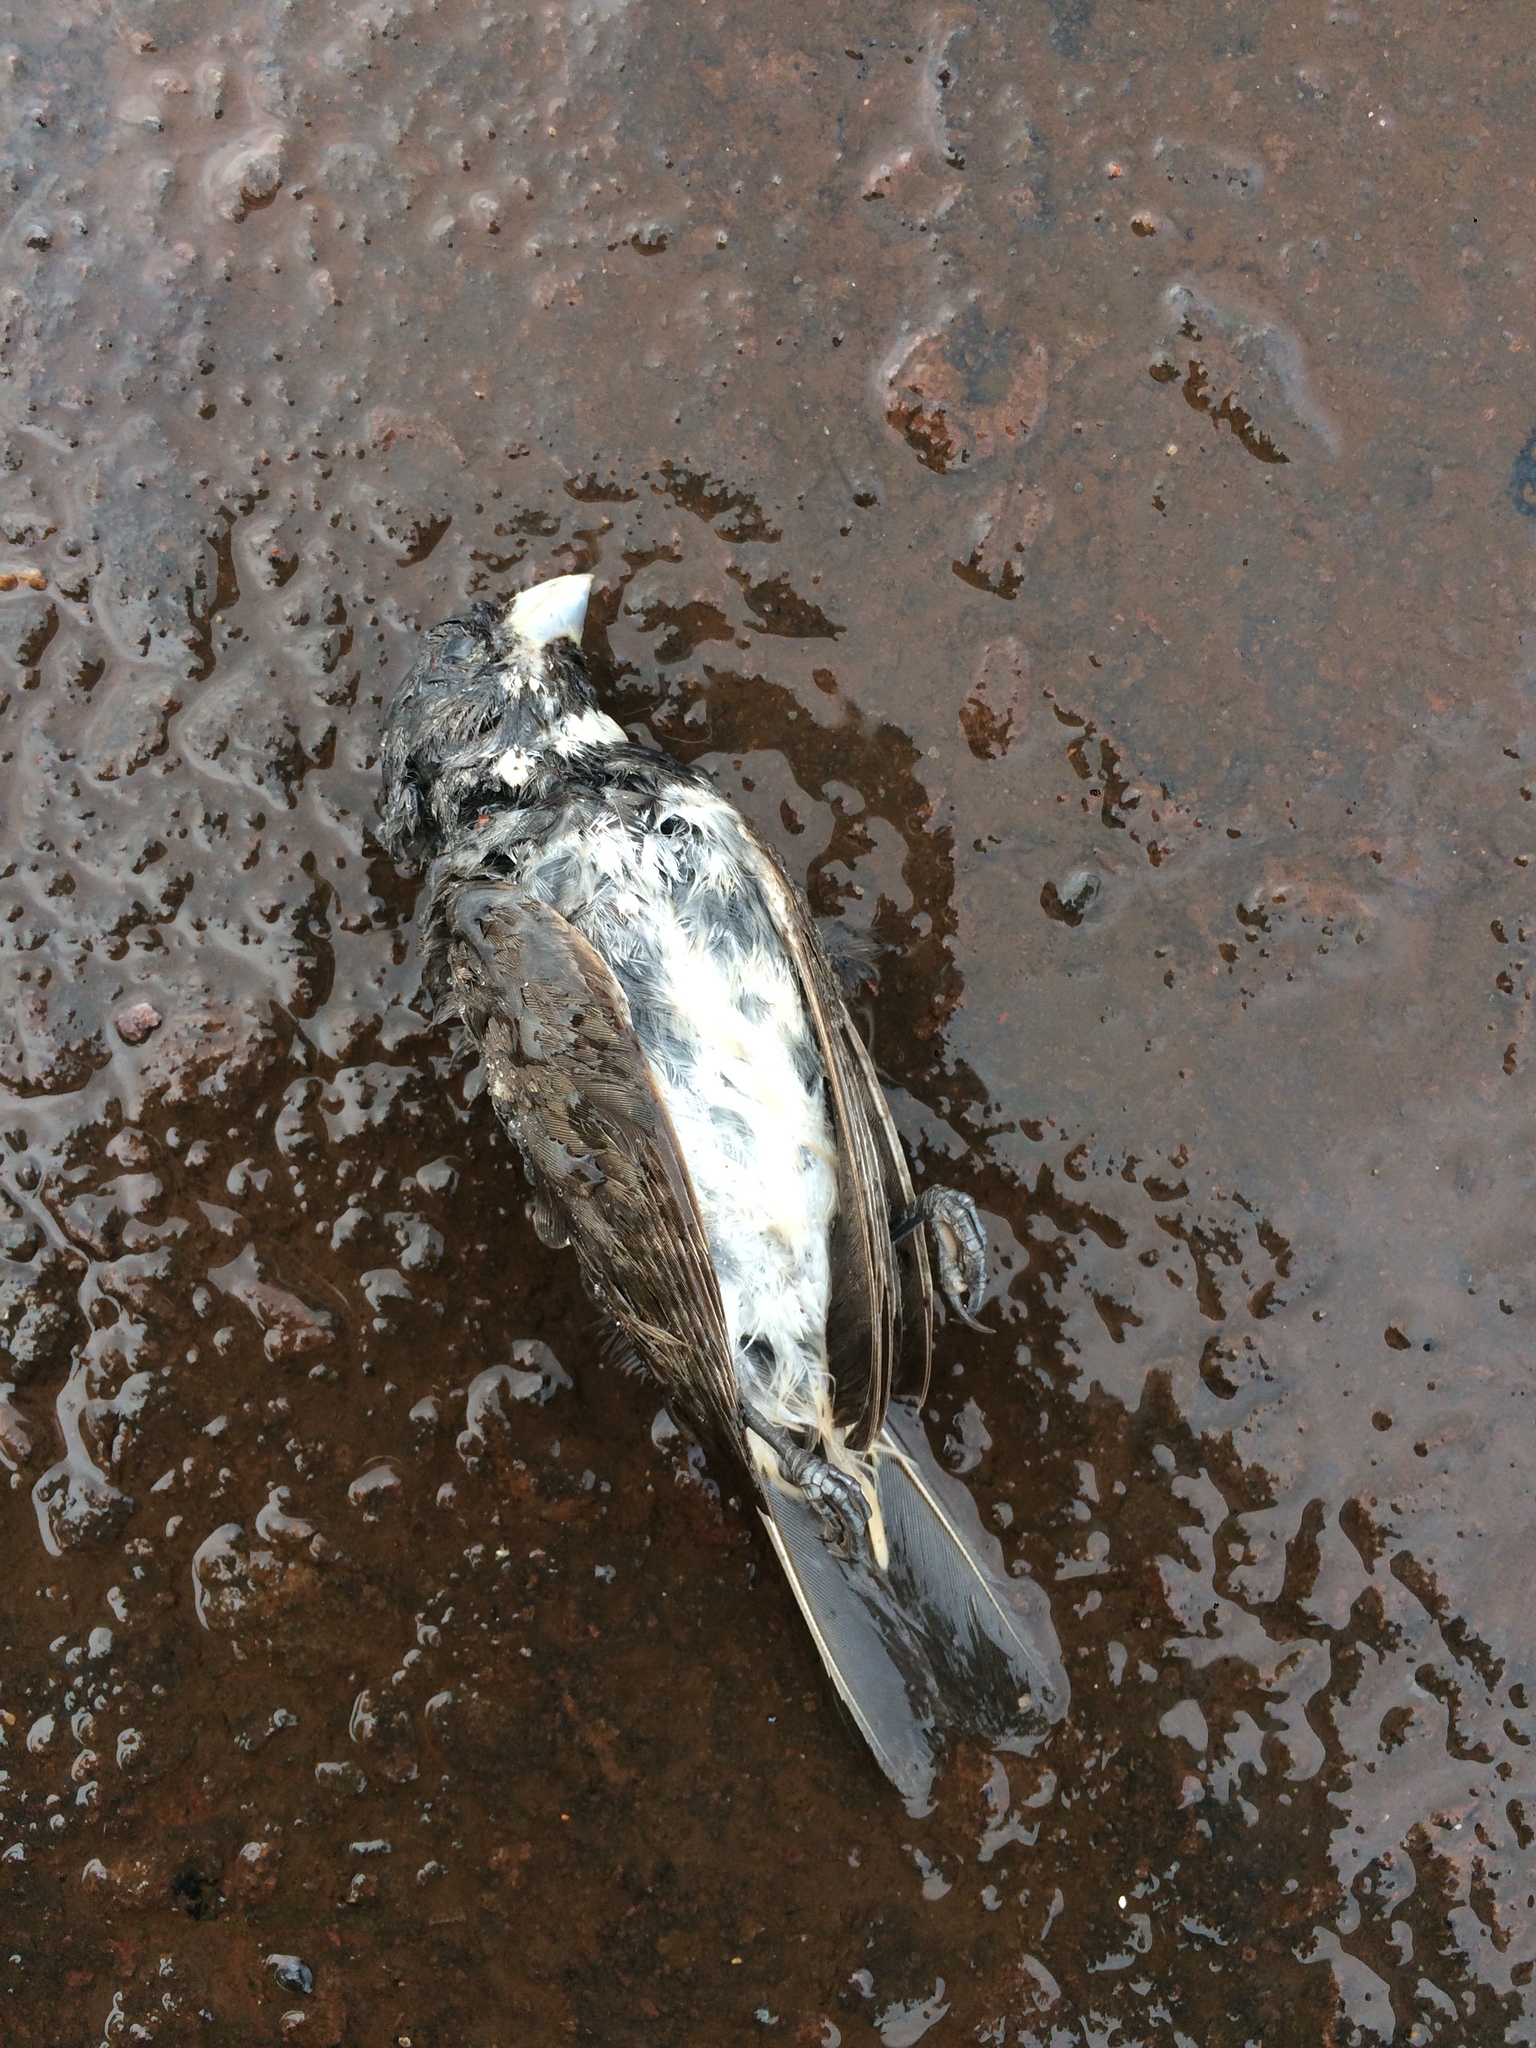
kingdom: Animalia
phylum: Chordata
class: Aves
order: Passeriformes
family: Thraupidae
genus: Sporophila
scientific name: Sporophila caerulescens
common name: Double-collared seedeater
